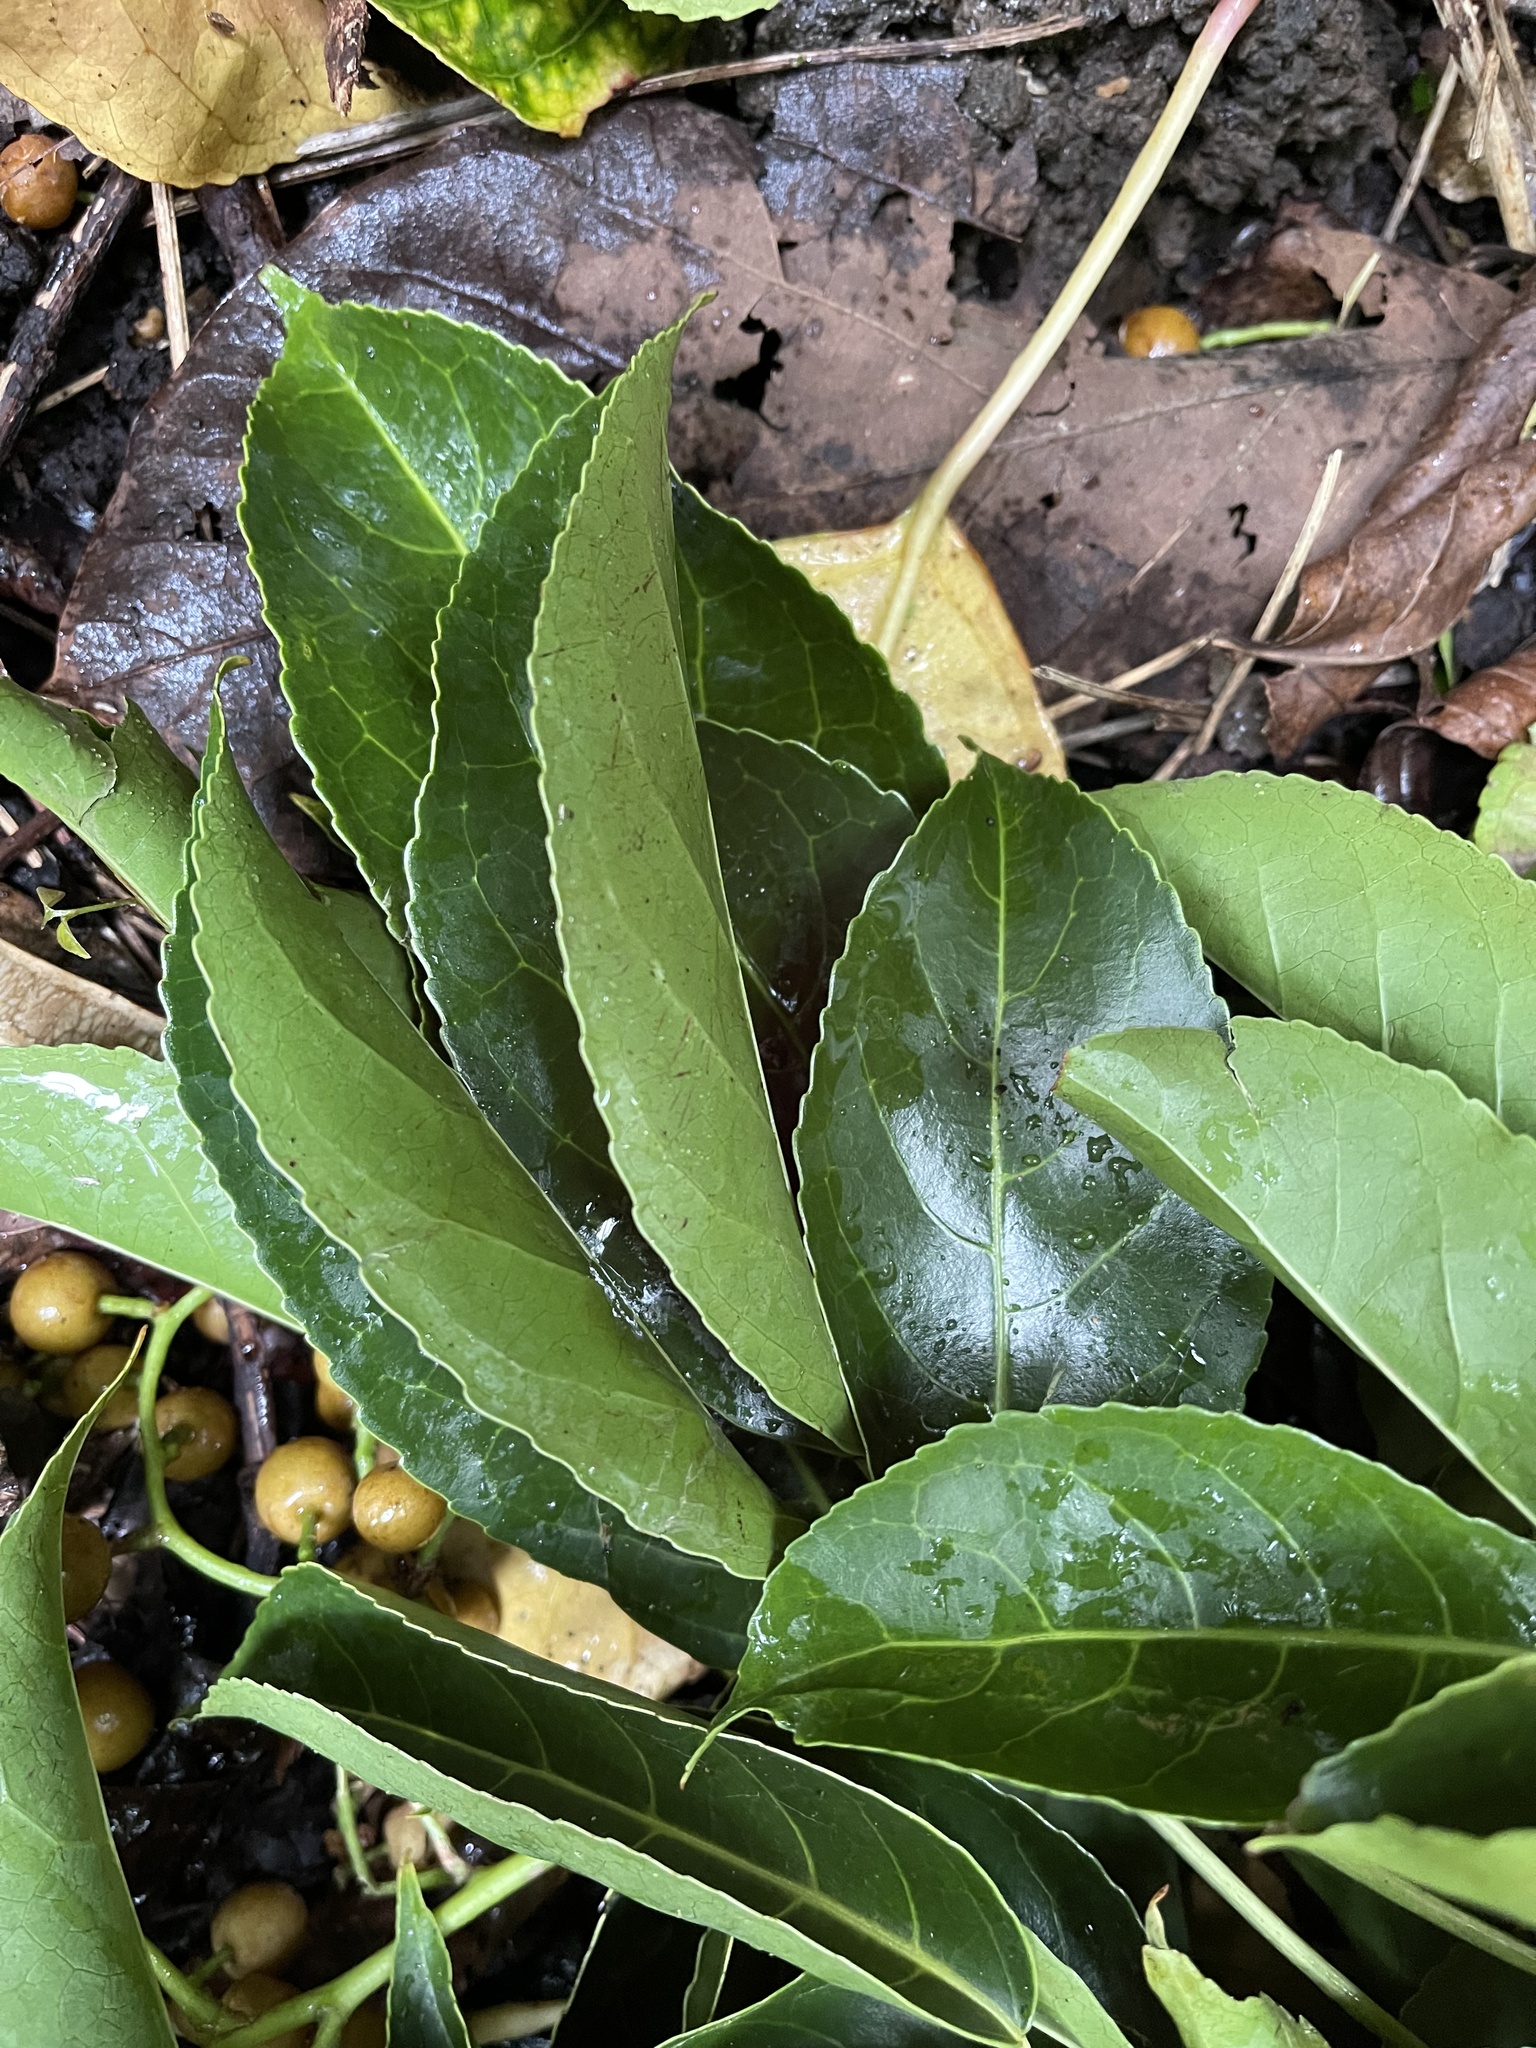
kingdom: Plantae
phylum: Tracheophyta
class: Magnoliopsida
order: Malpighiales
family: Phyllanthaceae
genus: Bischofia
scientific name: Bischofia javanica
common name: Javanese bishopwood
